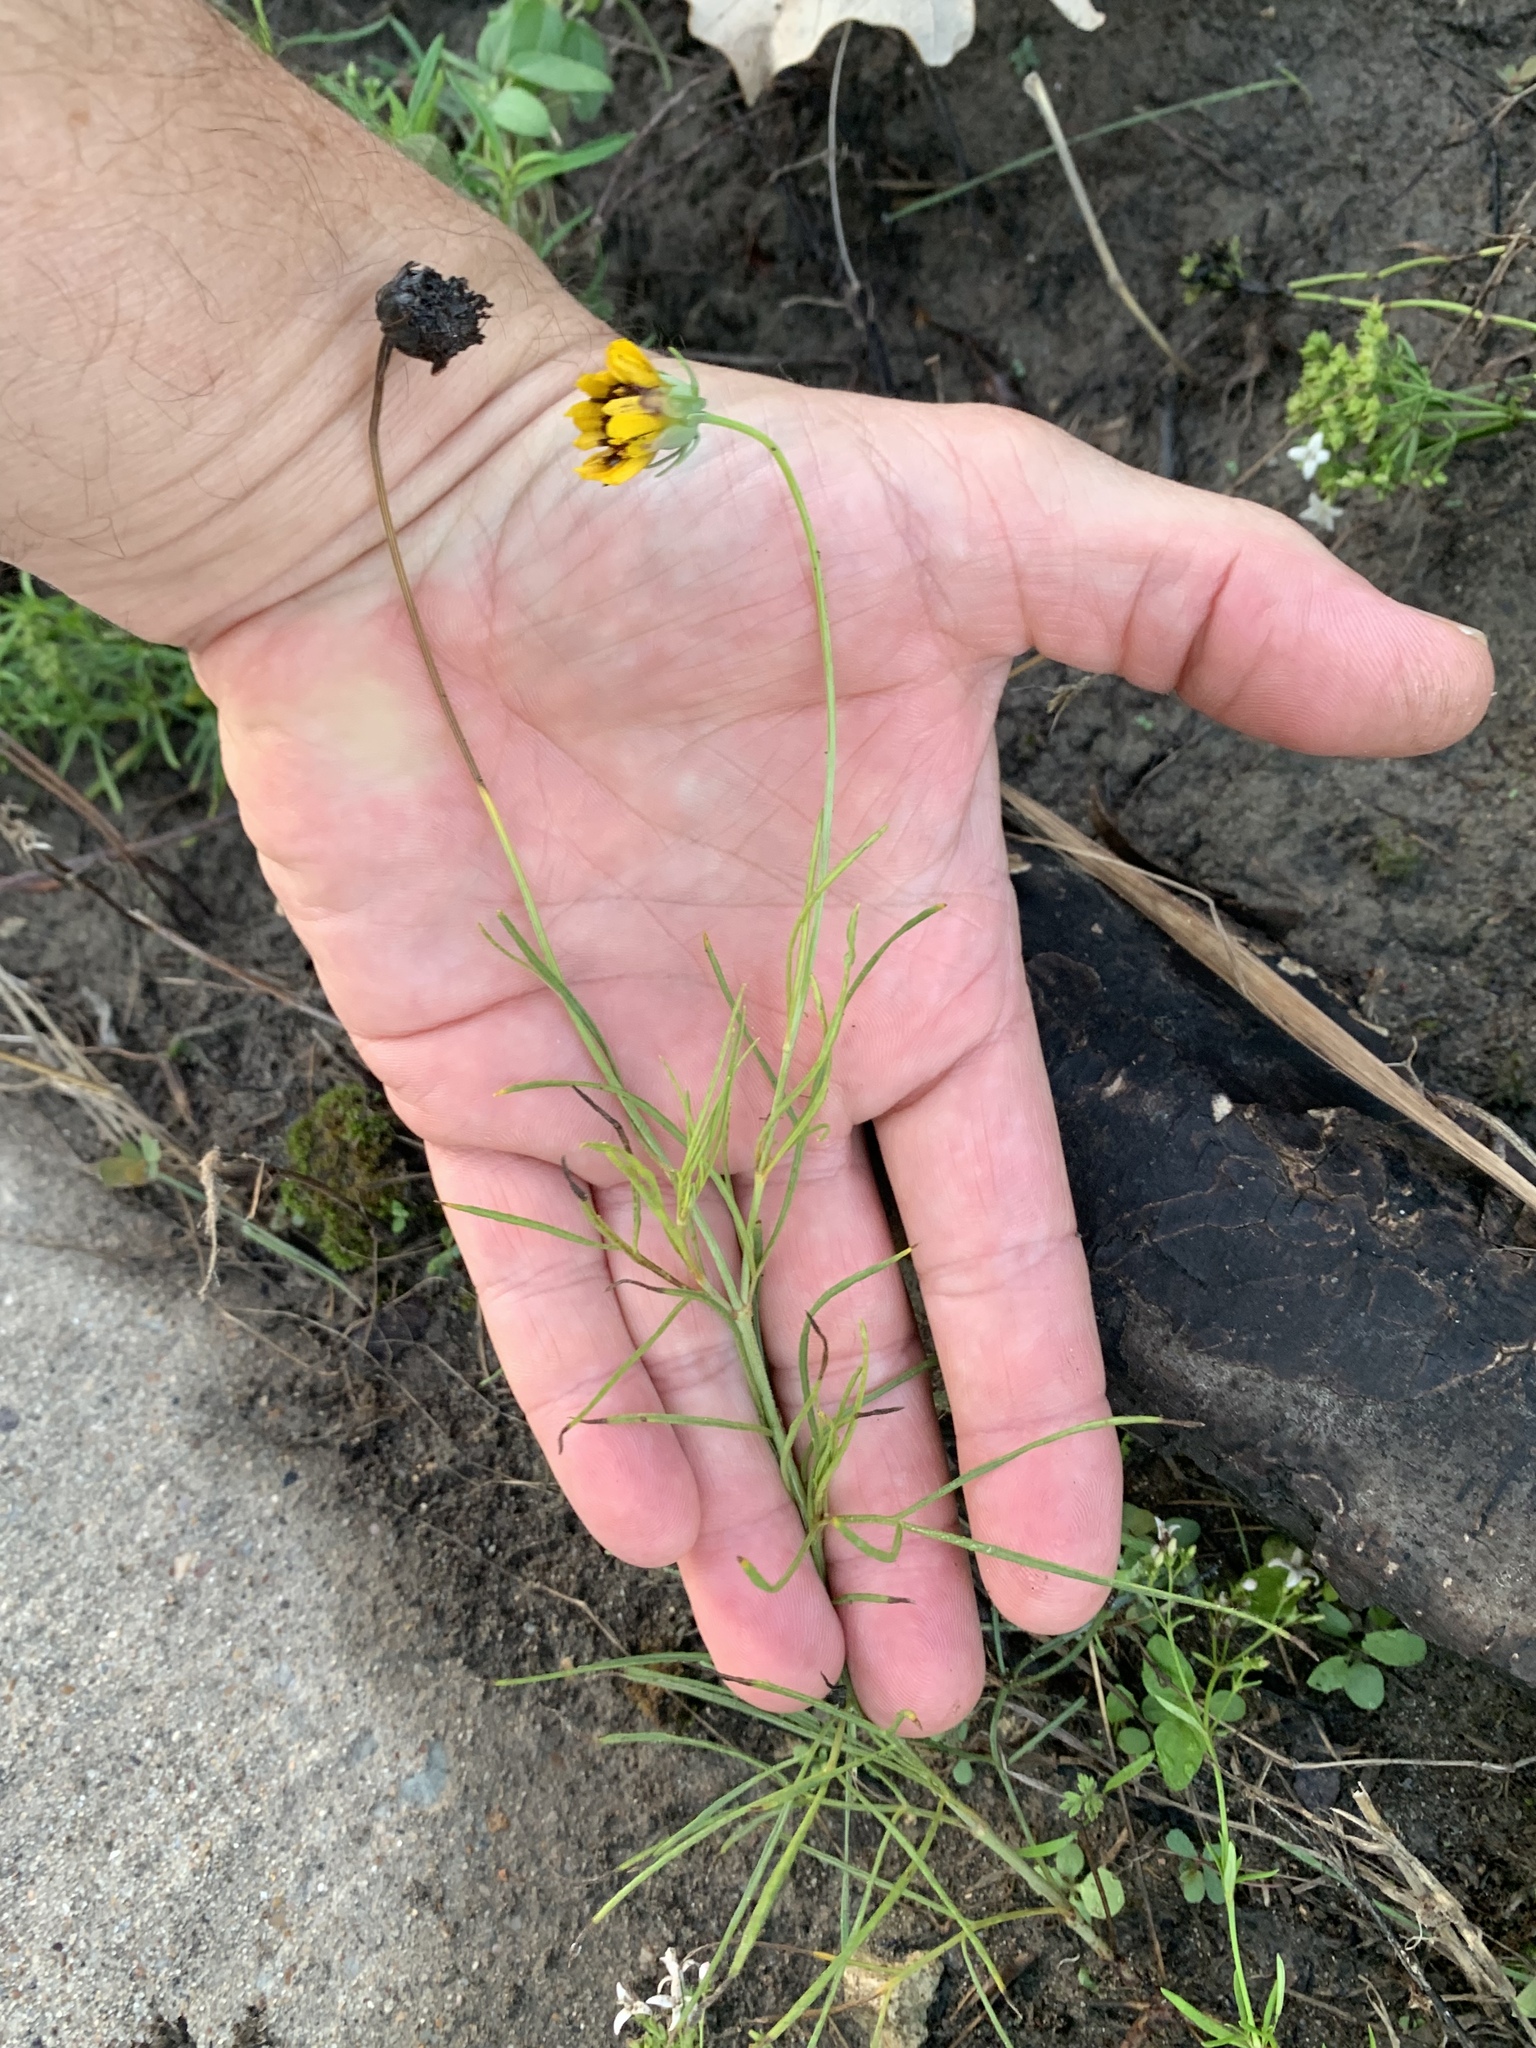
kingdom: Plantae
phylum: Tracheophyta
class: Magnoliopsida
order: Asterales
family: Asteraceae
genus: Thelesperma
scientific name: Thelesperma filifolium
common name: Stiff greenthread
